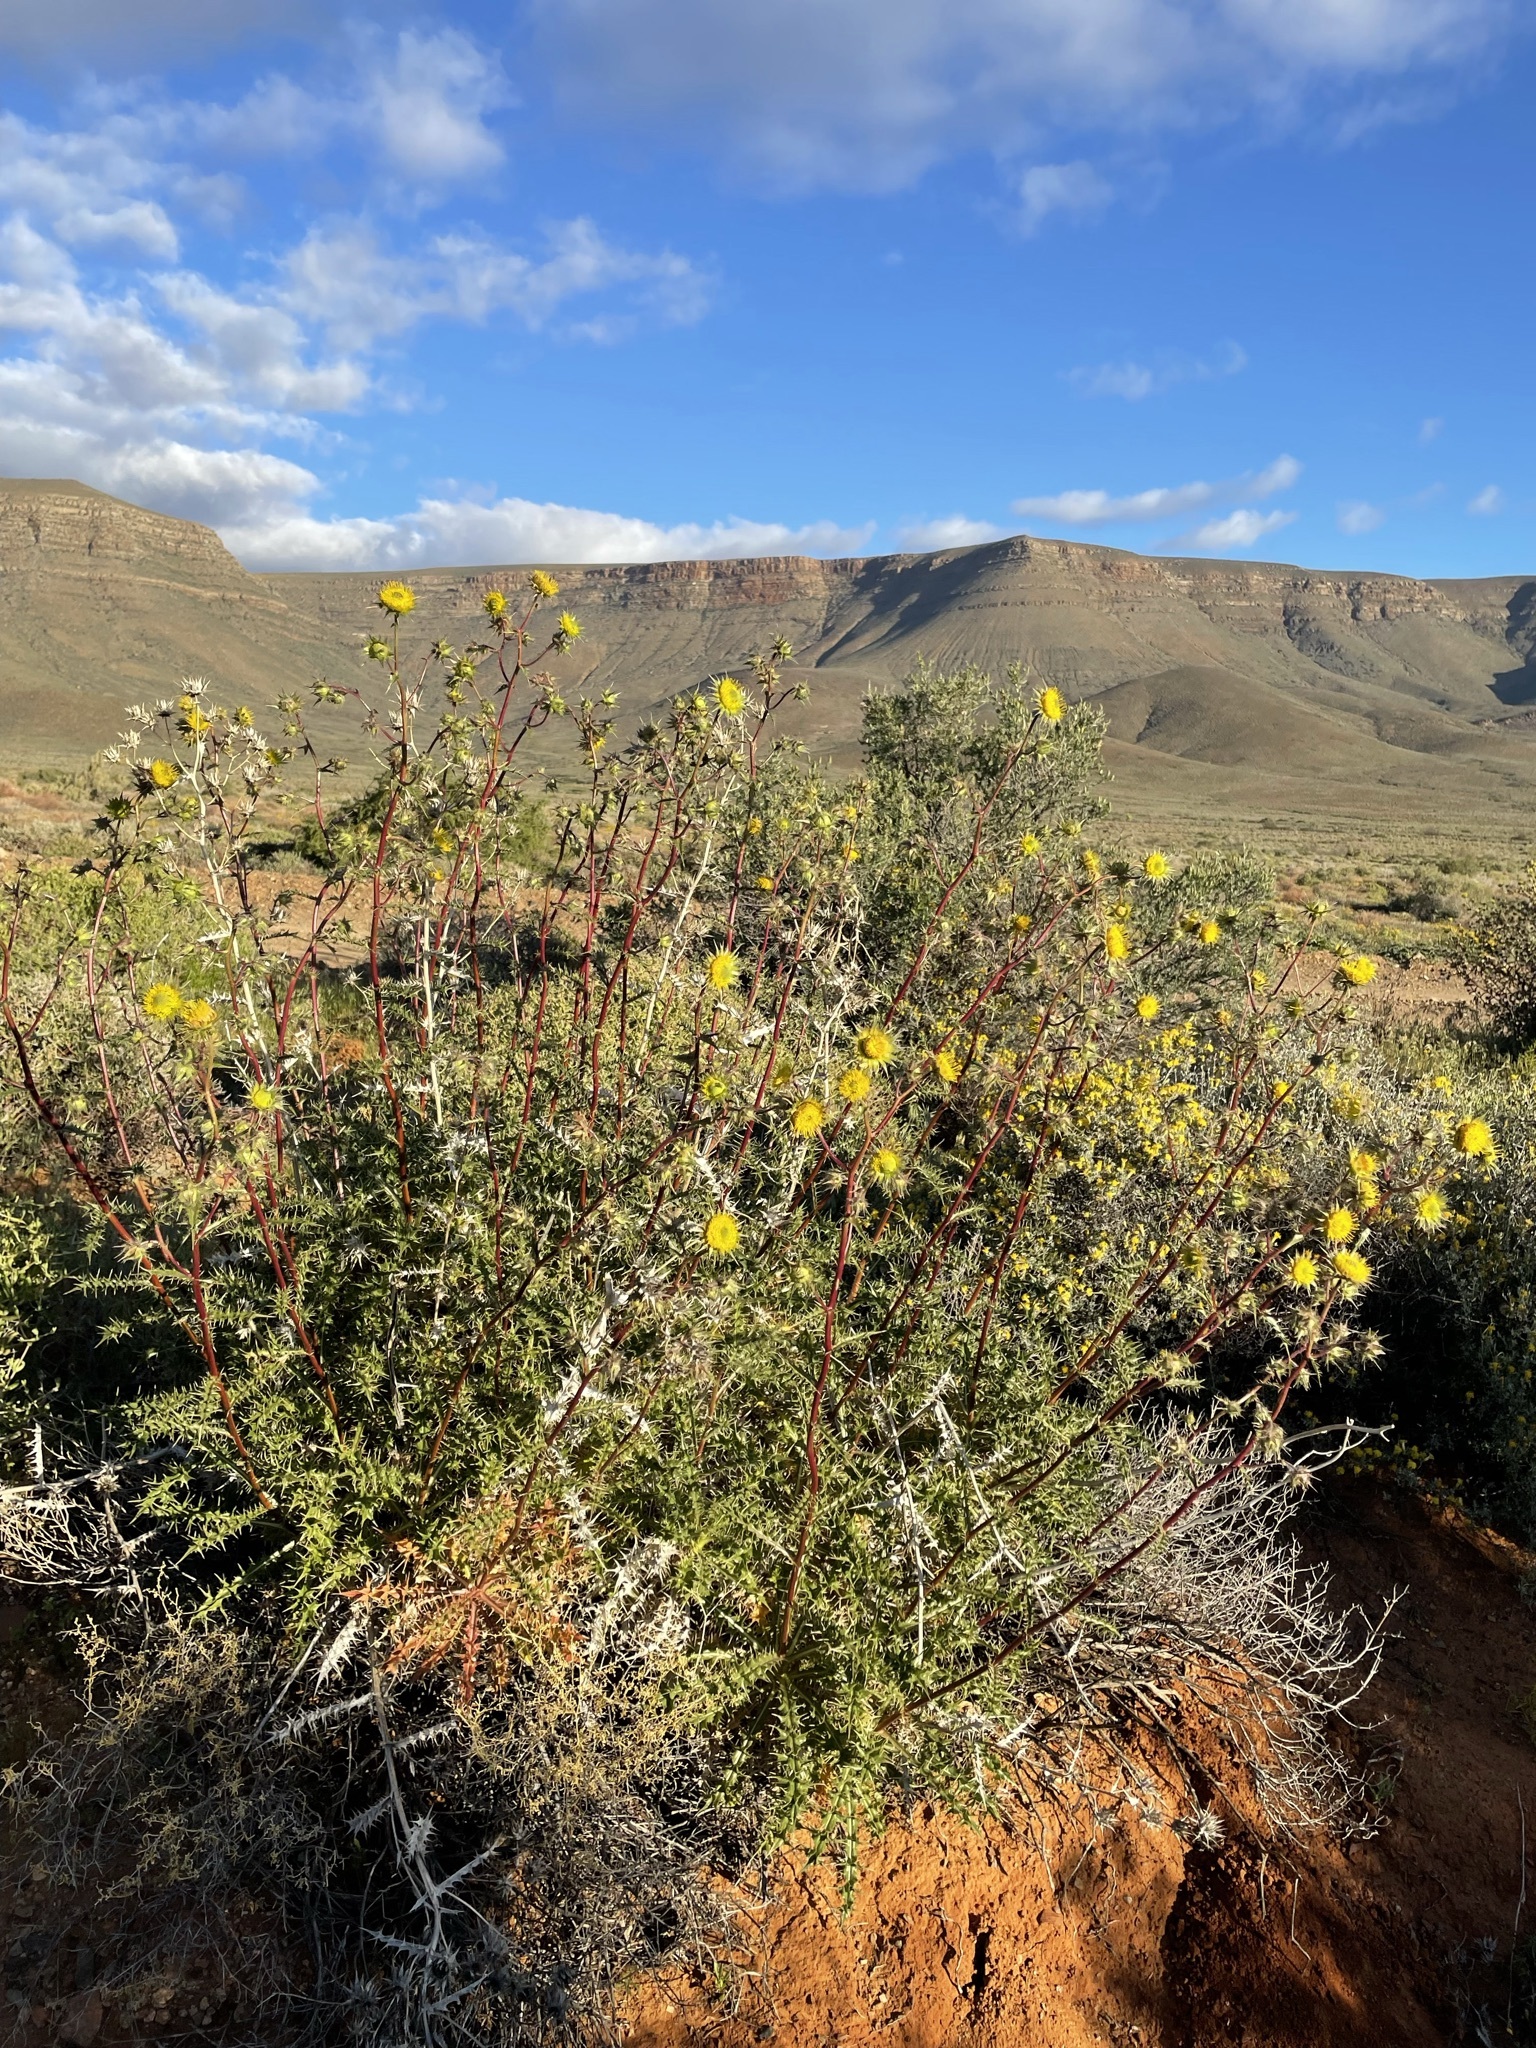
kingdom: Plantae
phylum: Tracheophyta
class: Magnoliopsida
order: Asterales
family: Asteraceae
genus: Berkheya
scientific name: Berkheya glabrata
